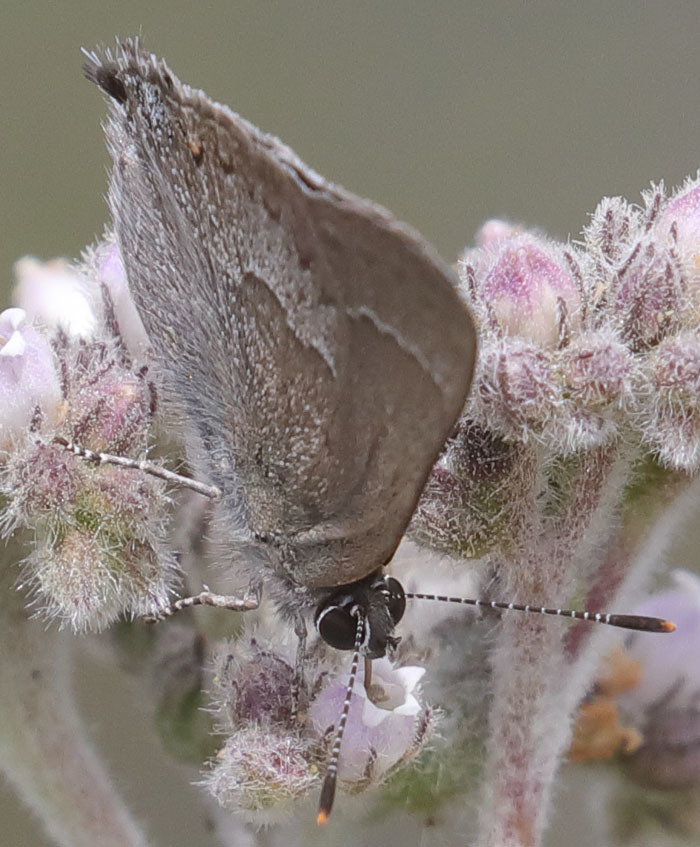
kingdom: Animalia
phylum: Arthropoda
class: Insecta
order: Lepidoptera
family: Lycaenidae
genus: Thecla
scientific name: Thecla tetra
